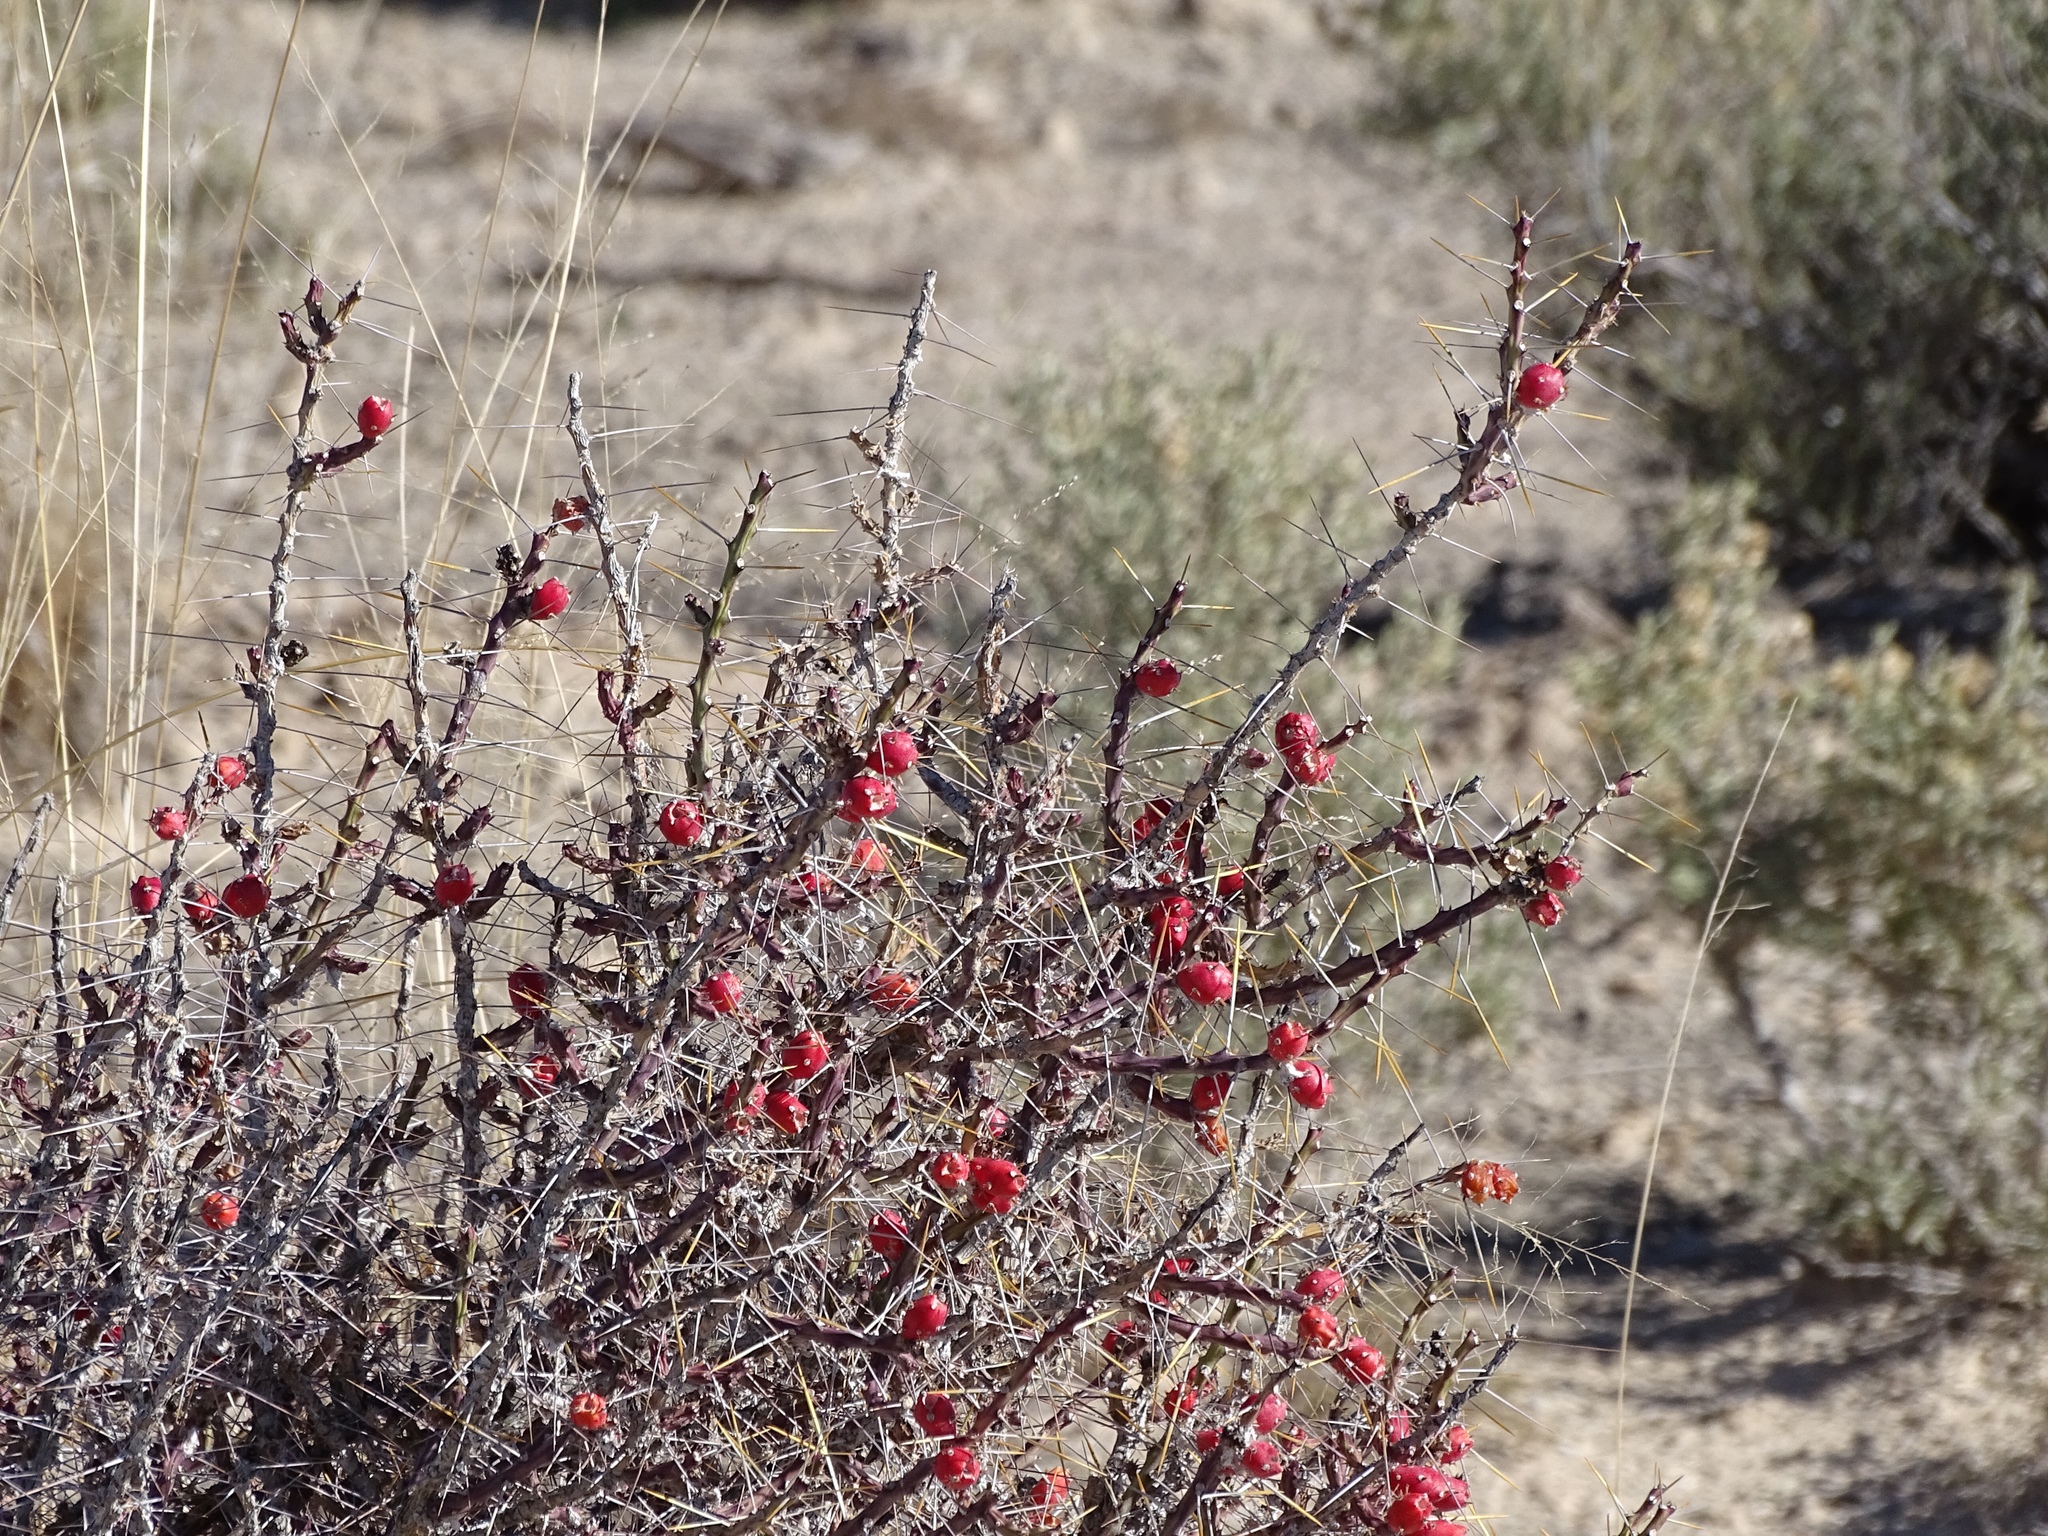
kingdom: Plantae
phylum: Tracheophyta
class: Magnoliopsida
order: Caryophyllales
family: Cactaceae
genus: Cylindropuntia
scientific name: Cylindropuntia leptocaulis
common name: Christmas cactus
